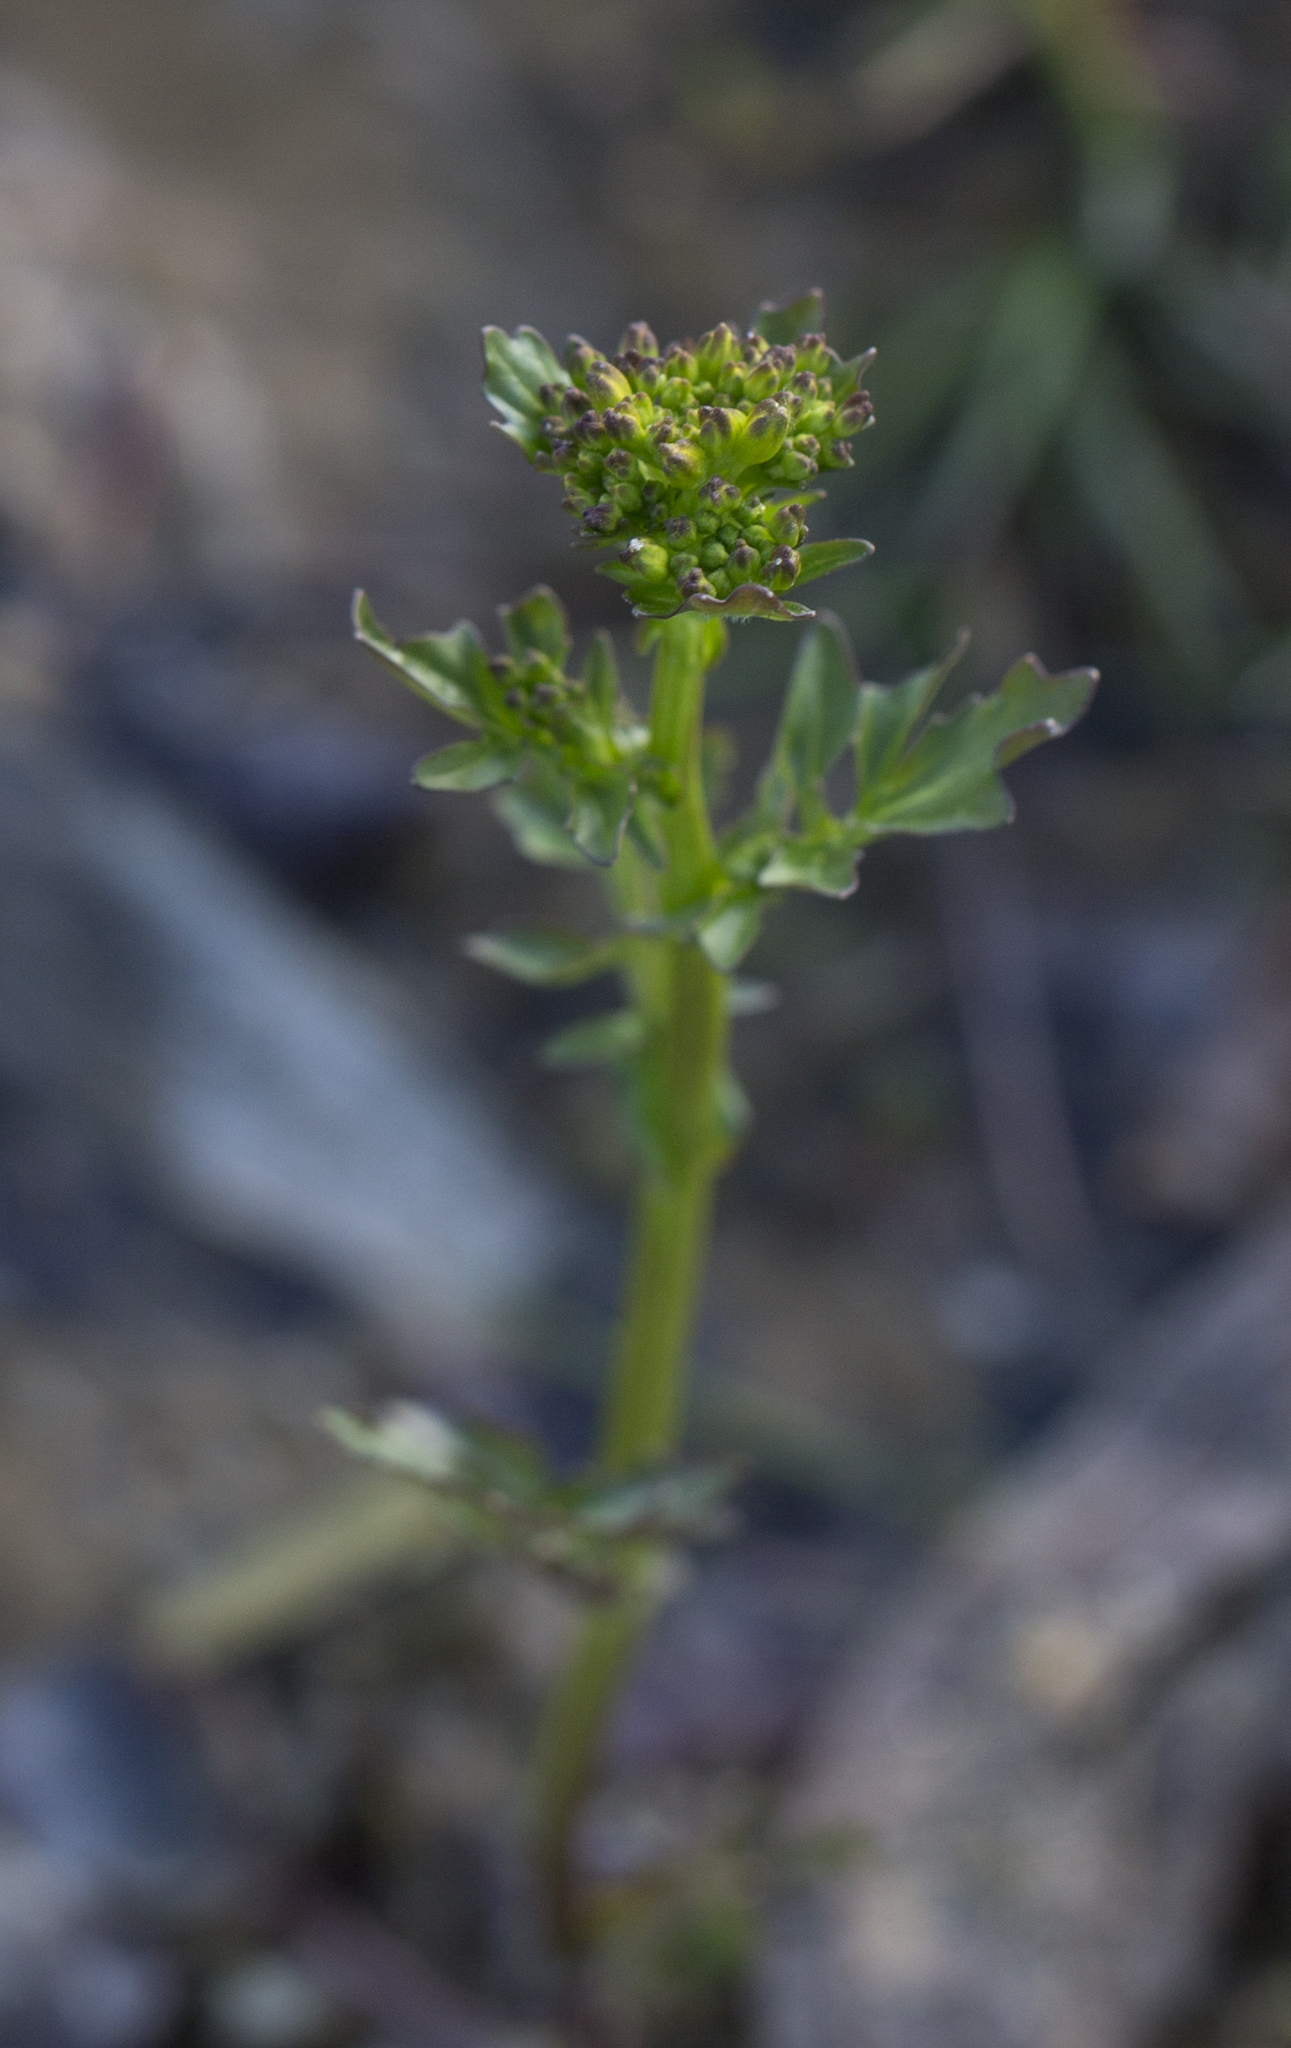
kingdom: Plantae
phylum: Tracheophyta
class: Magnoliopsida
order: Brassicales
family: Brassicaceae
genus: Barbarea
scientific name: Barbarea vulgaris
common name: Cressy-greens
